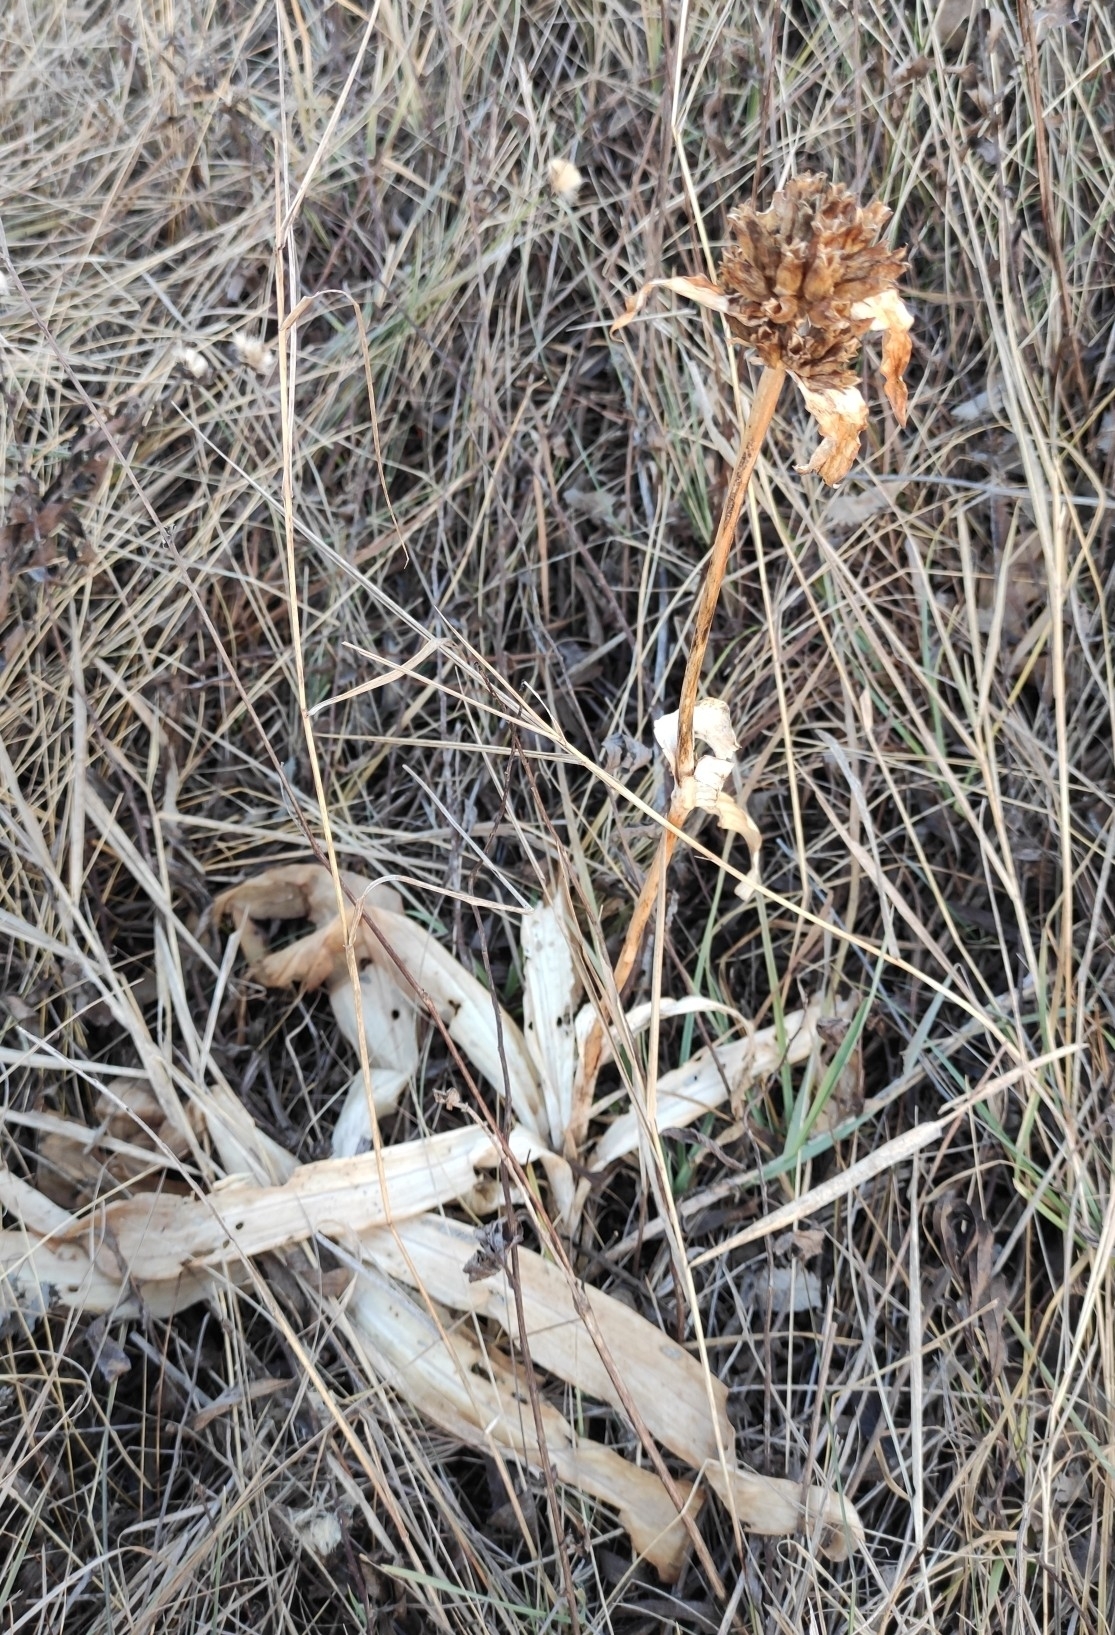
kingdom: Plantae
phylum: Tracheophyta
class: Magnoliopsida
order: Gentianales
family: Gentianaceae
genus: Gentiana
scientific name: Gentiana macrophylla
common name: Large-leaf gentian
